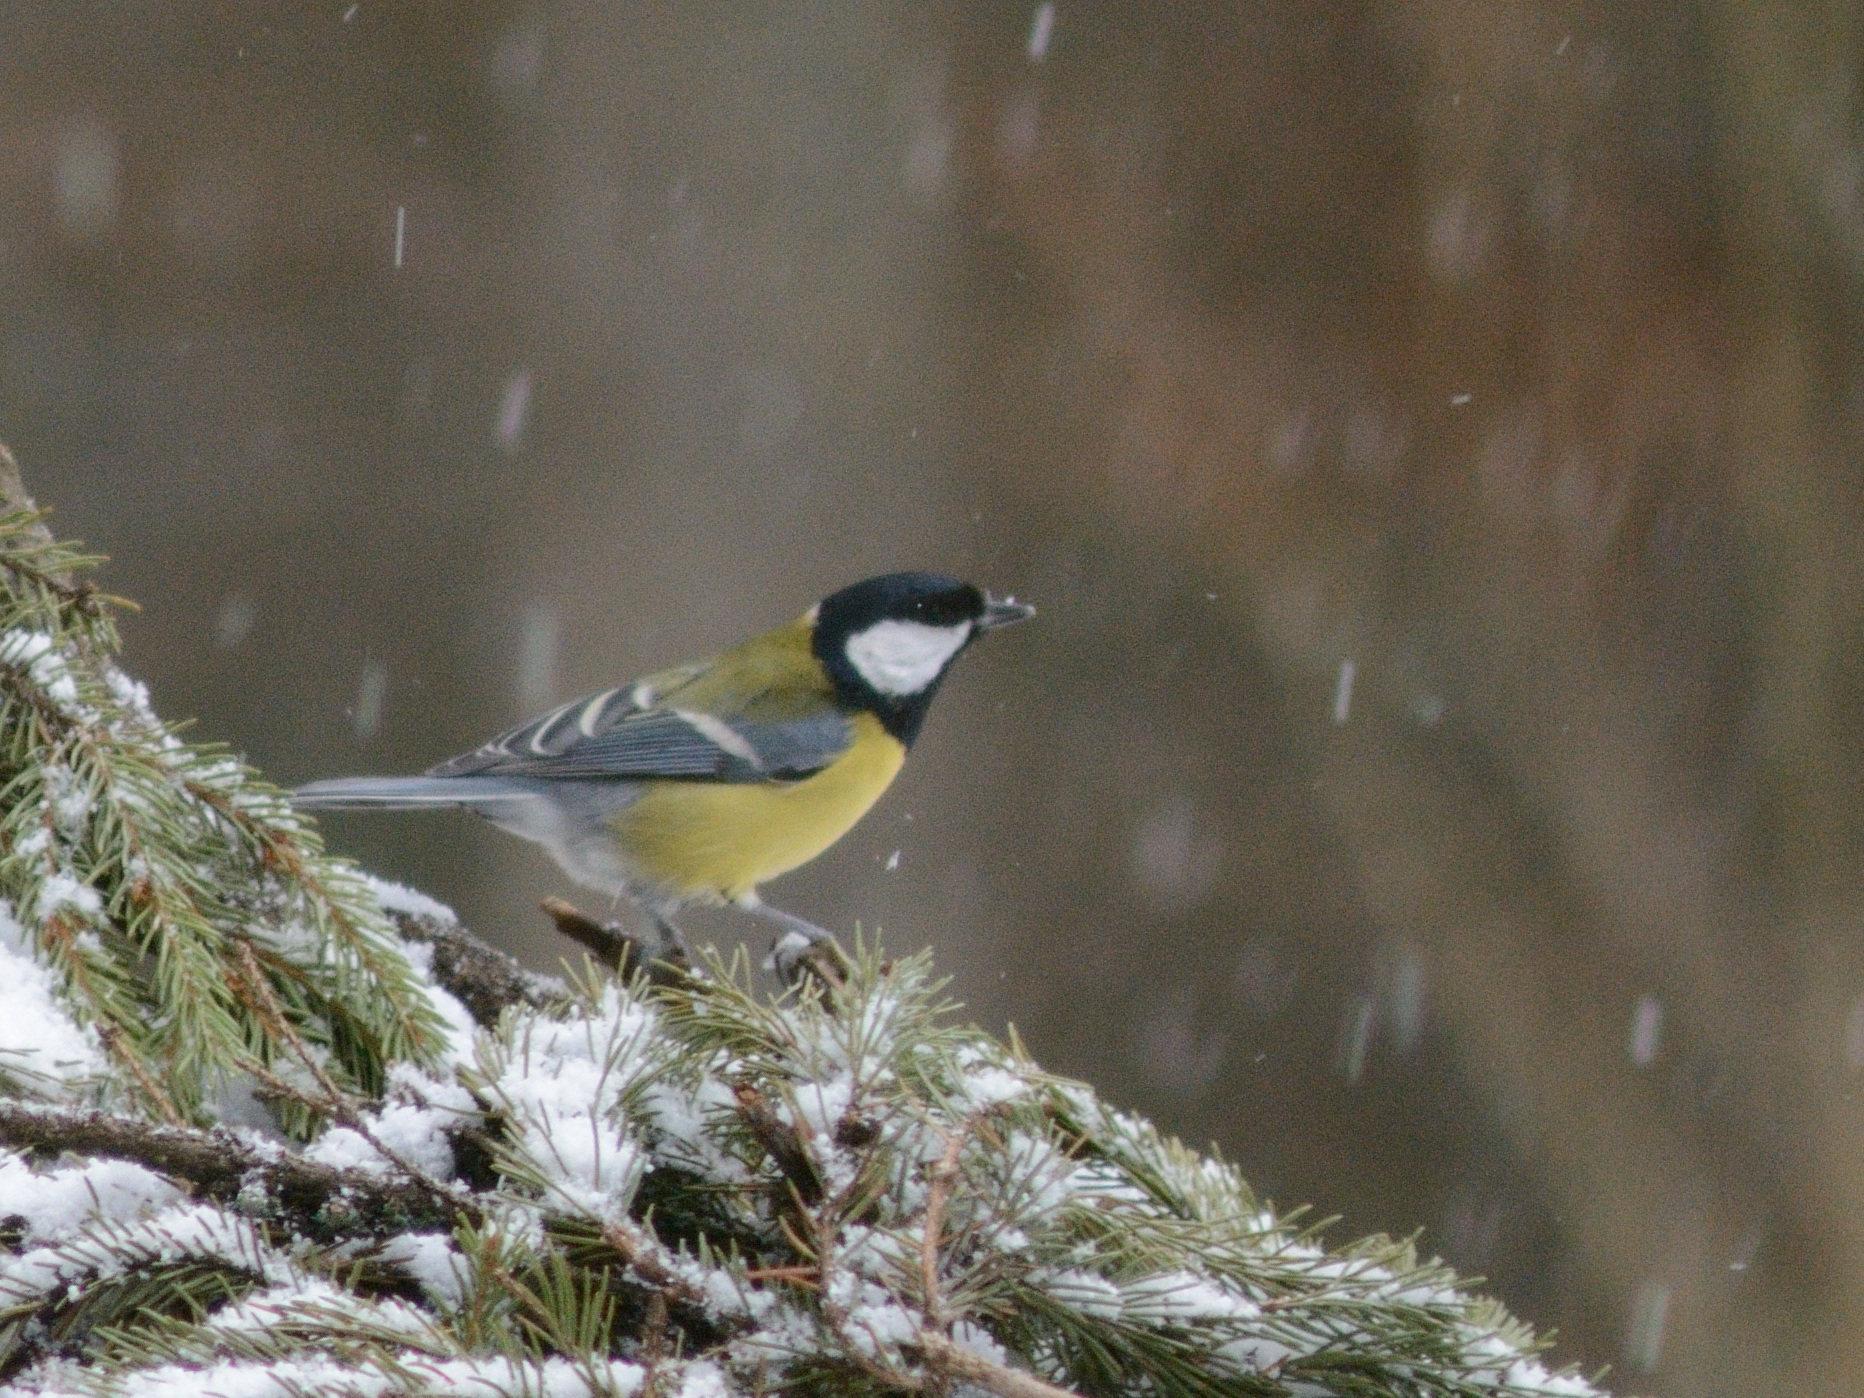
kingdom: Animalia
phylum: Chordata
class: Aves
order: Passeriformes
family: Paridae
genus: Parus
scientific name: Parus major
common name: Great tit
